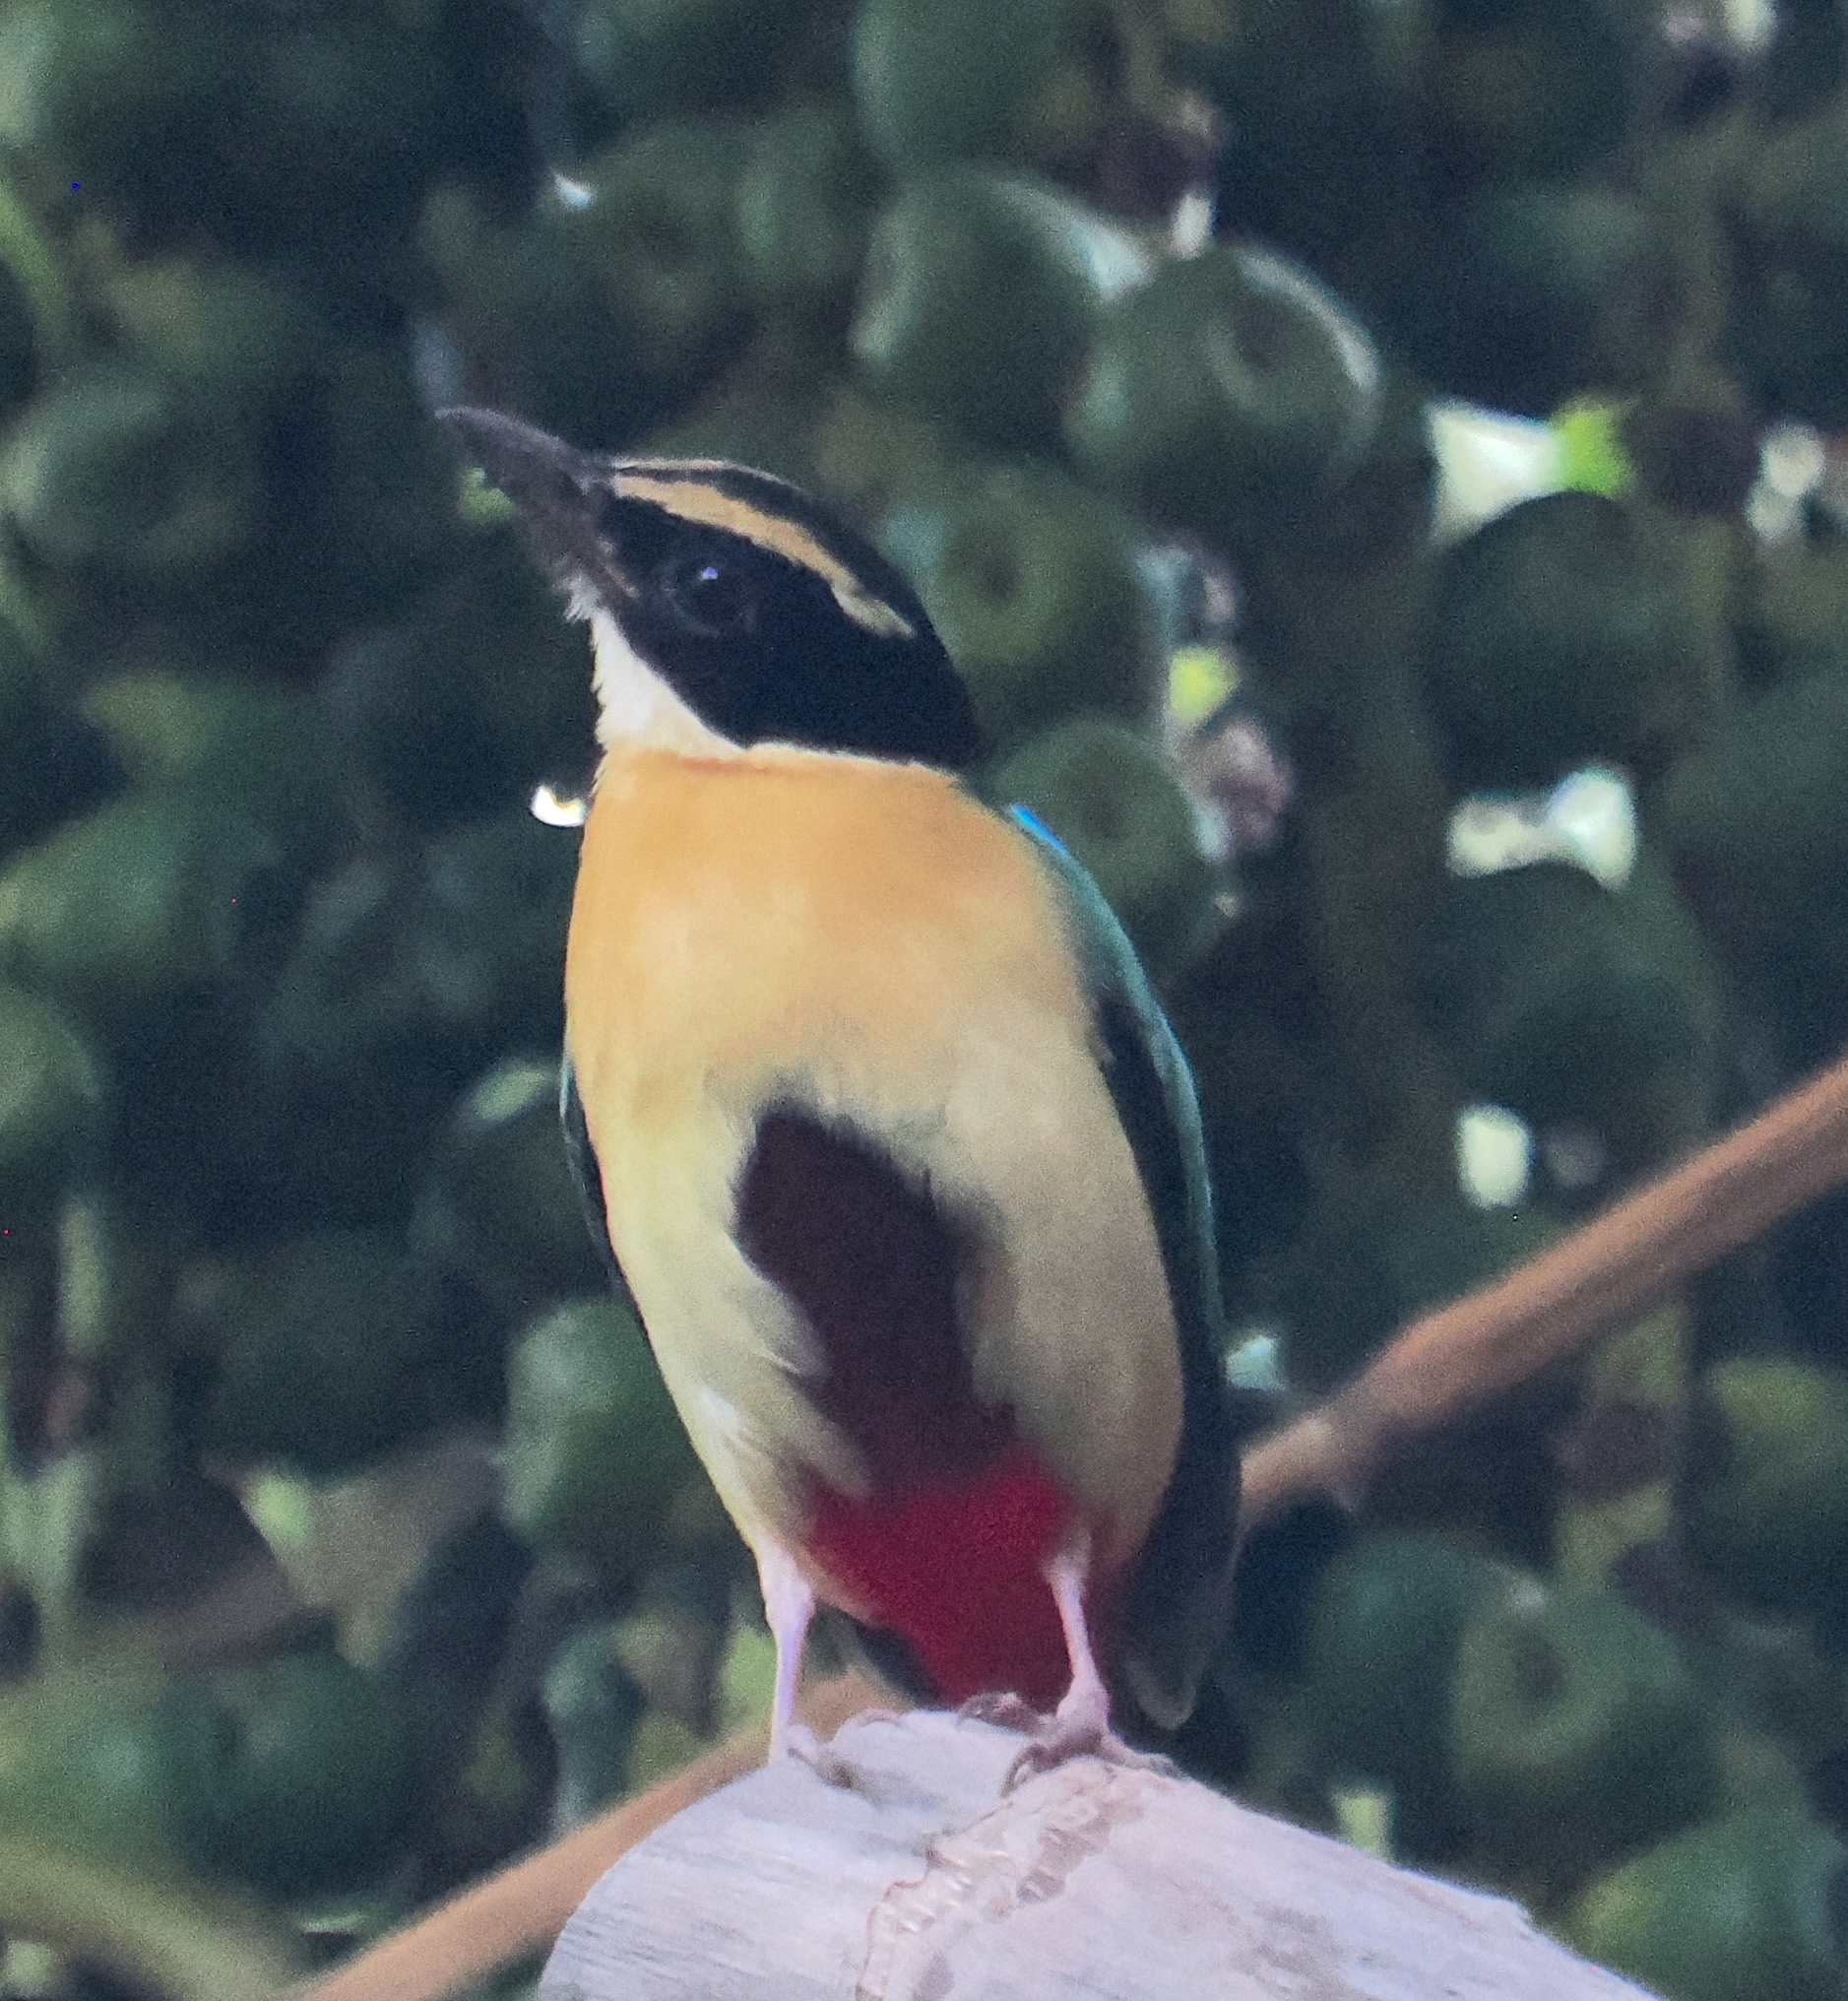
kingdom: Animalia
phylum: Chordata
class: Aves
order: Passeriformes
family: Pittidae
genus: Pitta
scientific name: Pitta elegans
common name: Elegant pitta
